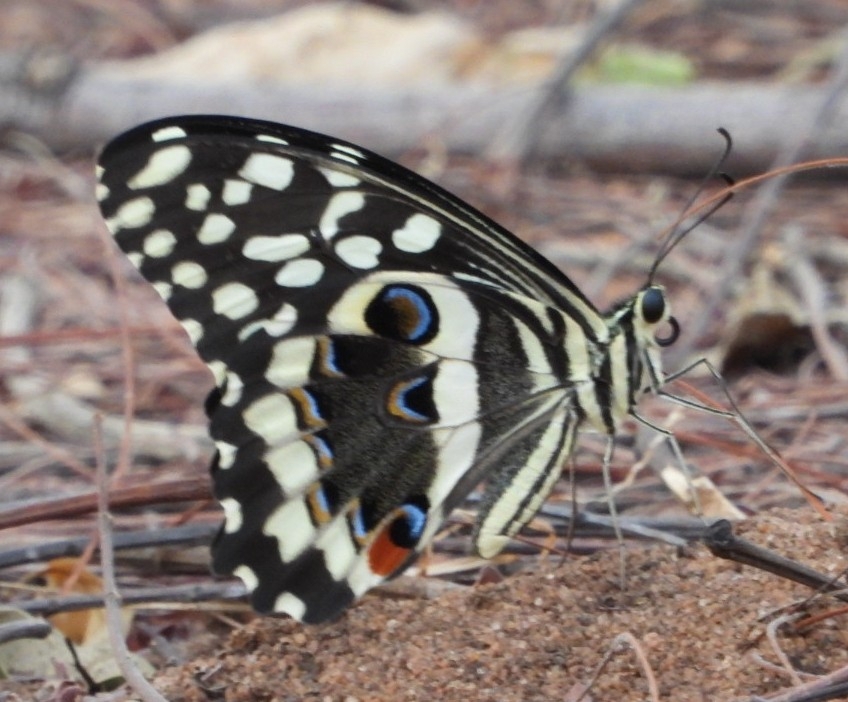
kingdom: Animalia
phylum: Arthropoda
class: Insecta
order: Lepidoptera
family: Papilionidae
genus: Papilio
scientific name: Papilio demodocus
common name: Christmas butterfly
